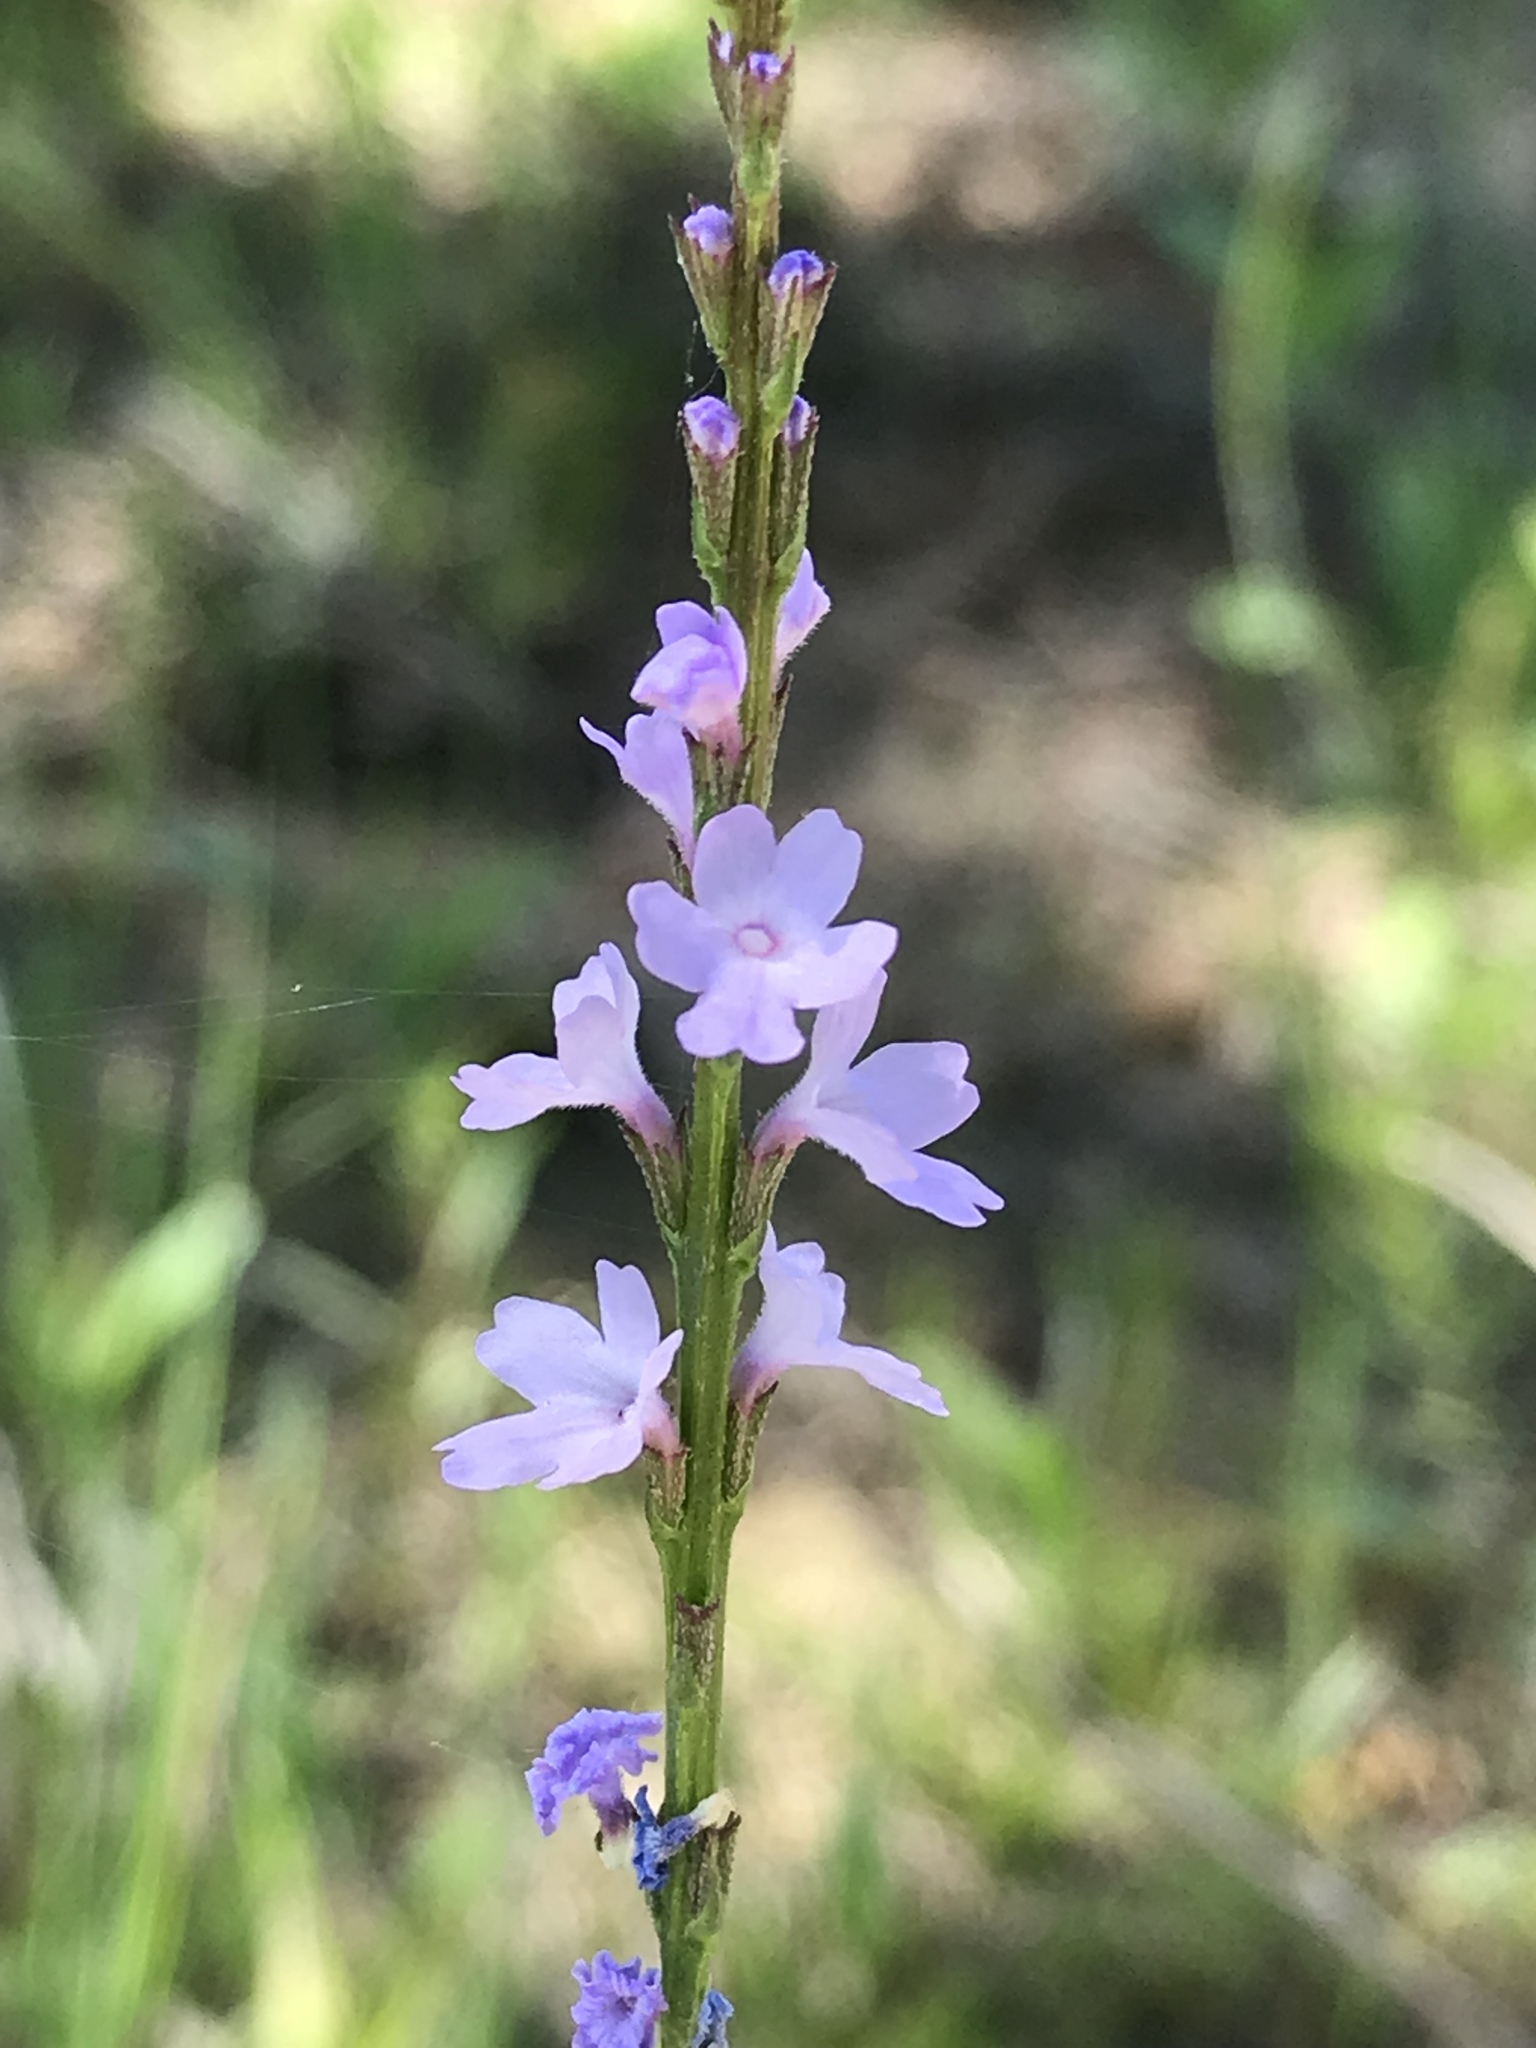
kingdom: Plantae
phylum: Tracheophyta
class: Magnoliopsida
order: Lamiales
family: Verbenaceae
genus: Verbena
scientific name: Verbena halei
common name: Texas vervain
